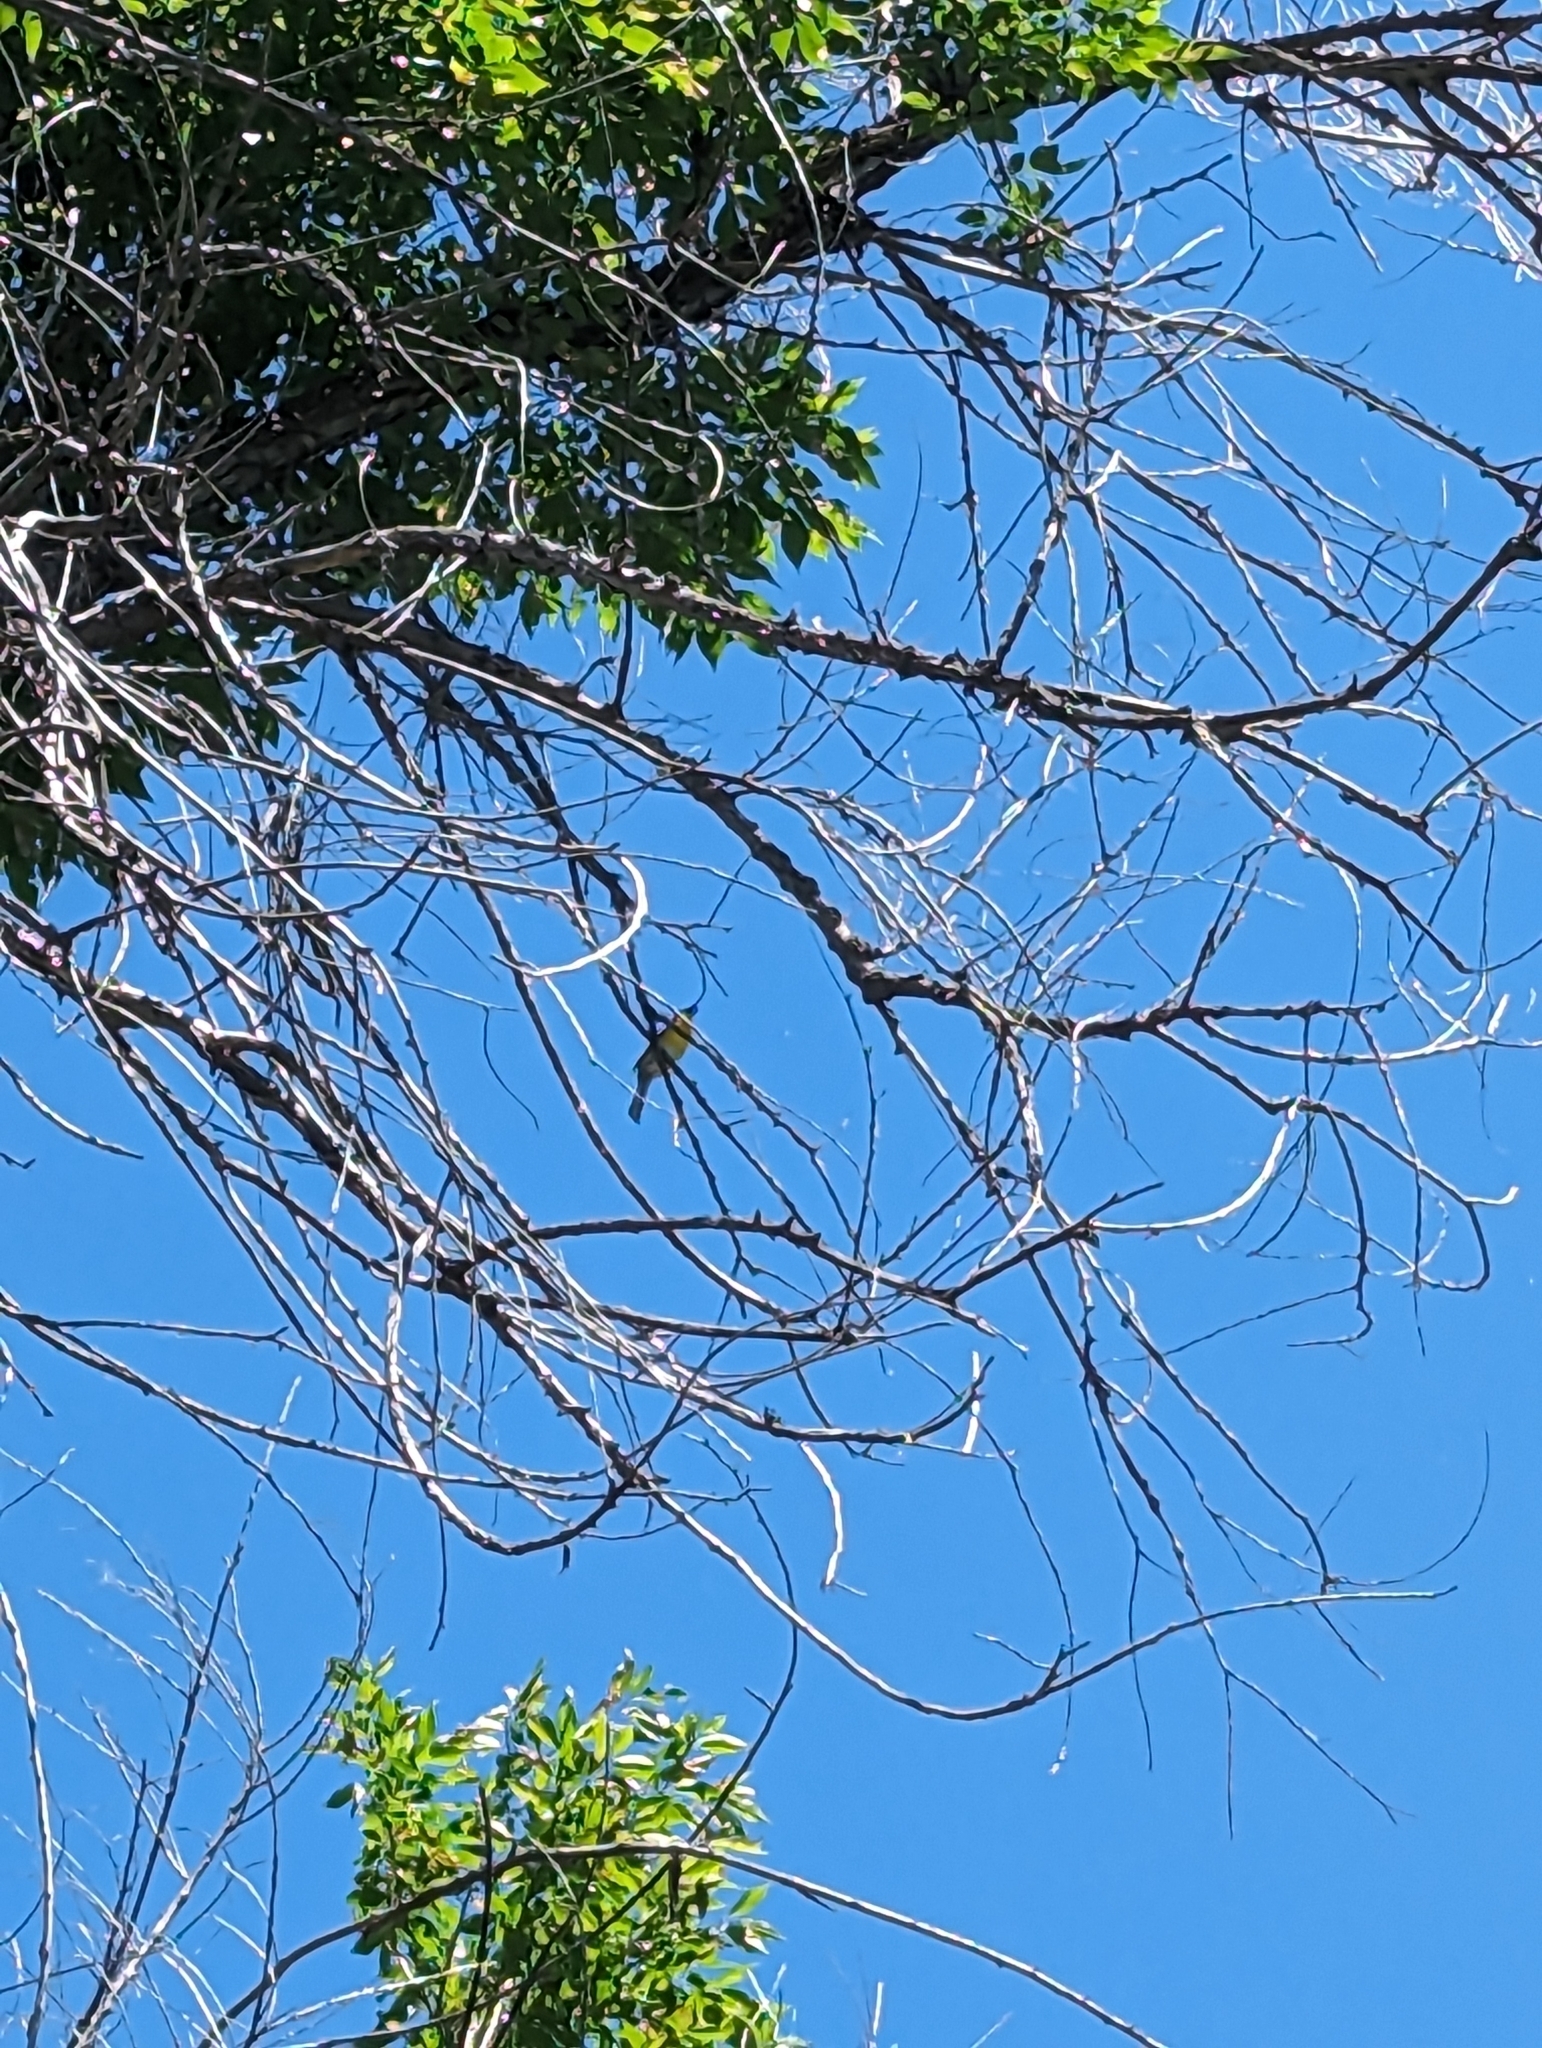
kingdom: Animalia
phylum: Chordata
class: Aves
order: Passeriformes
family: Parulidae
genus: Icteria
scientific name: Icteria virens
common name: Yellow-breasted chat
